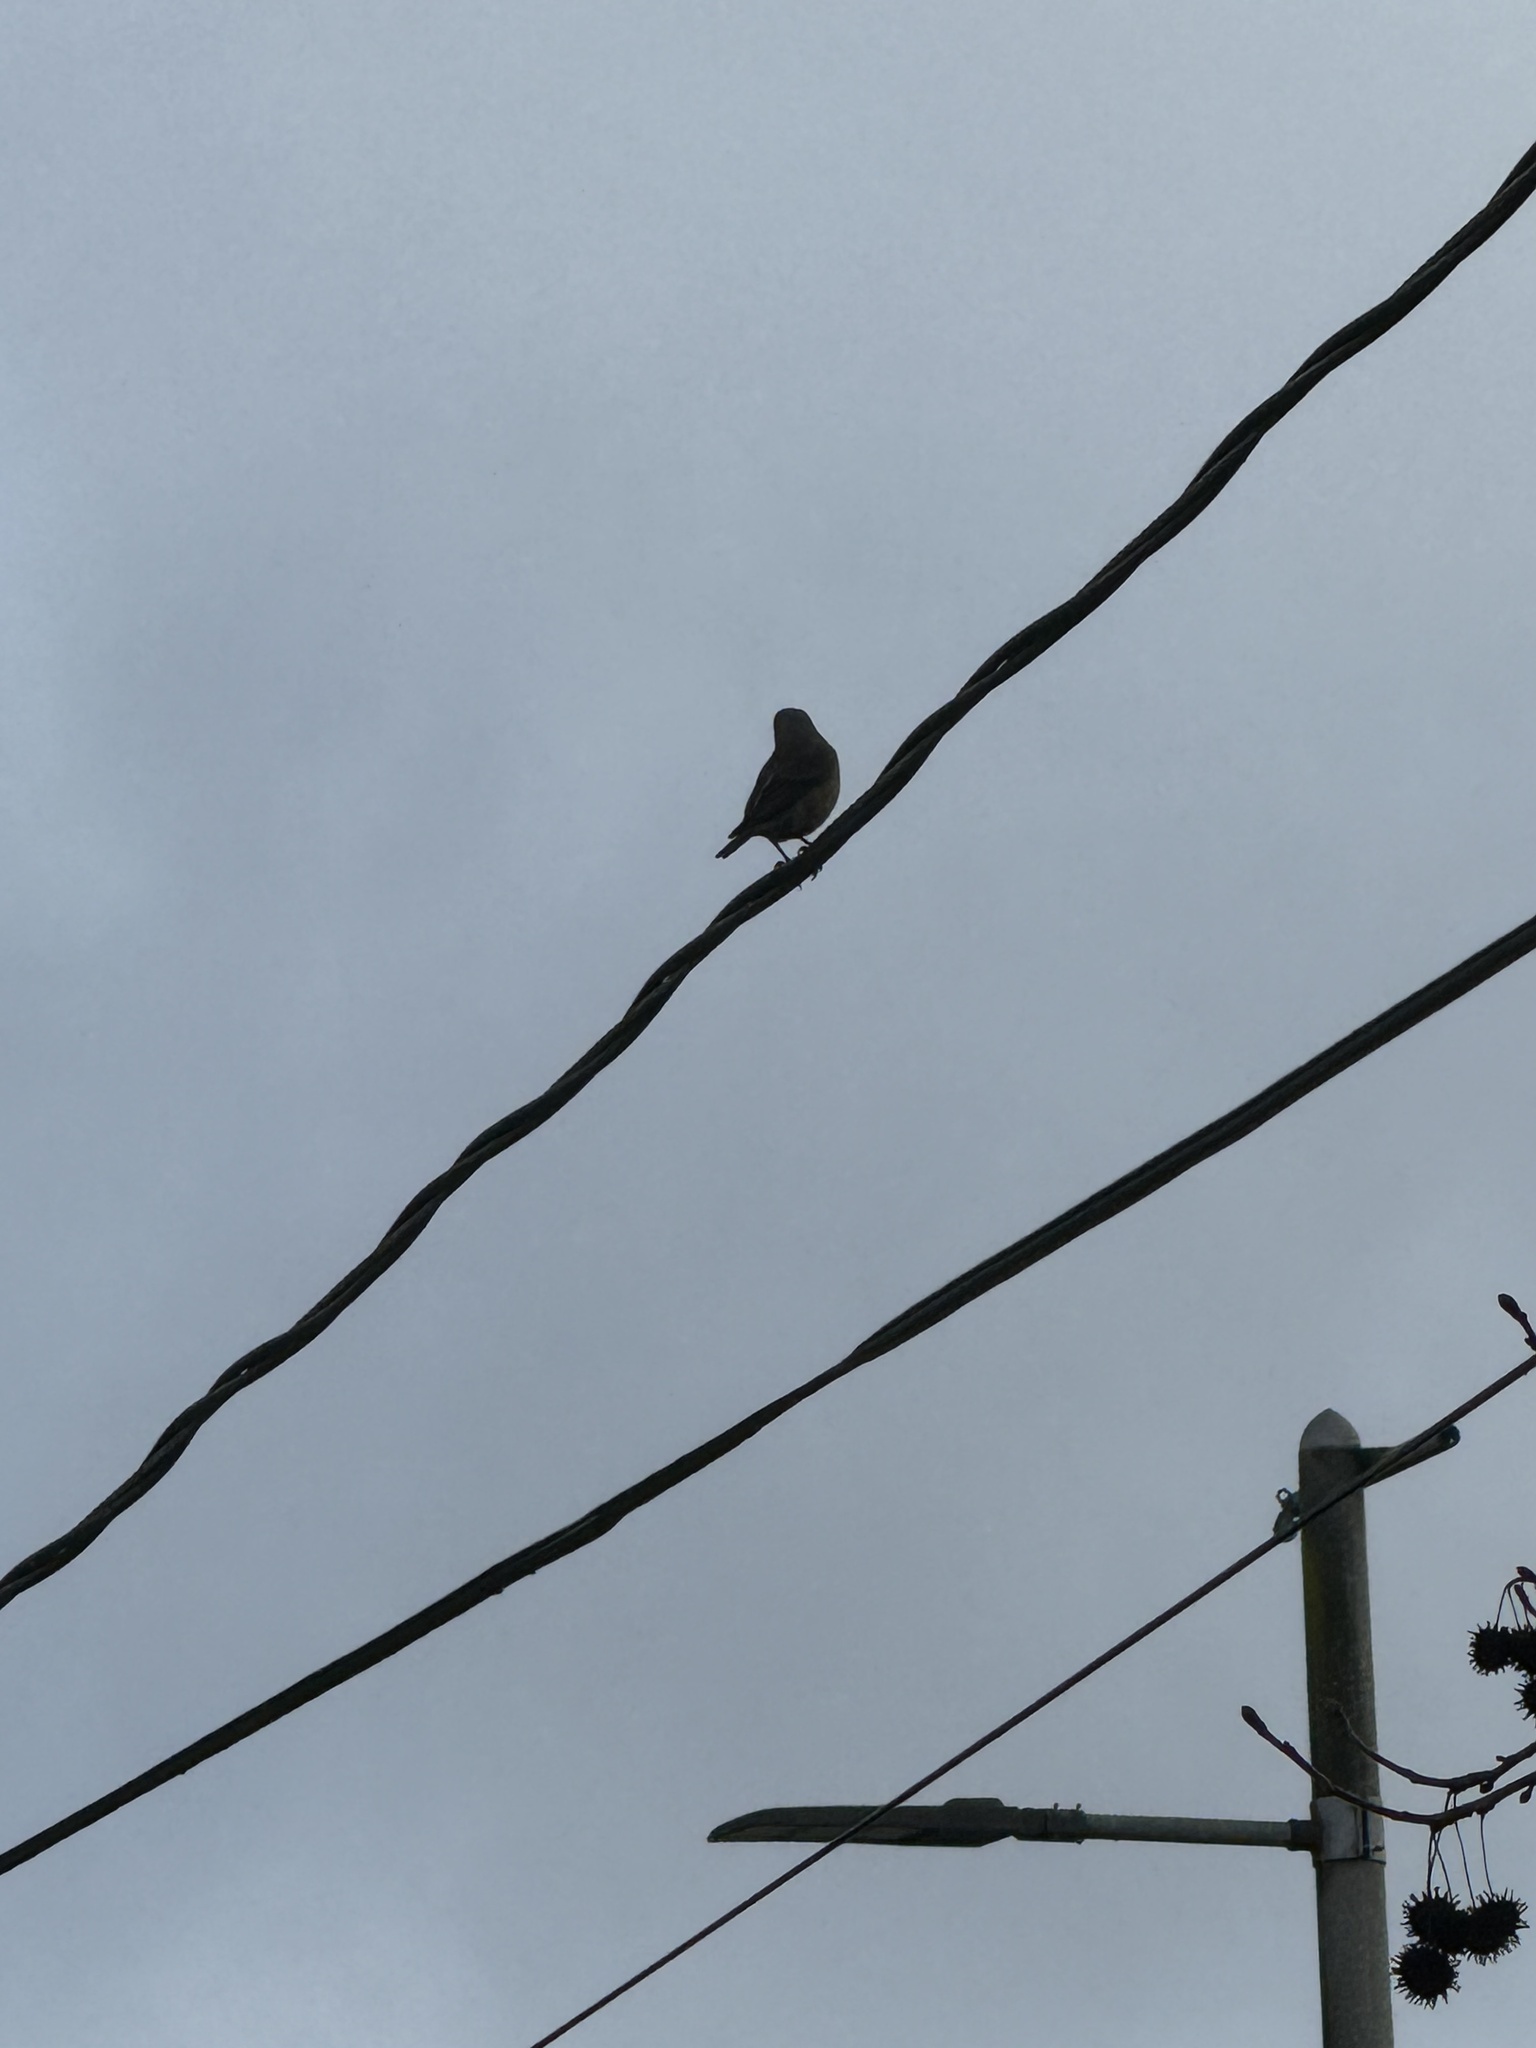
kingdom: Animalia
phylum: Chordata
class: Aves
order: Passeriformes
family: Turdidae
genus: Sialia
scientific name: Sialia mexicana
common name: Western bluebird
